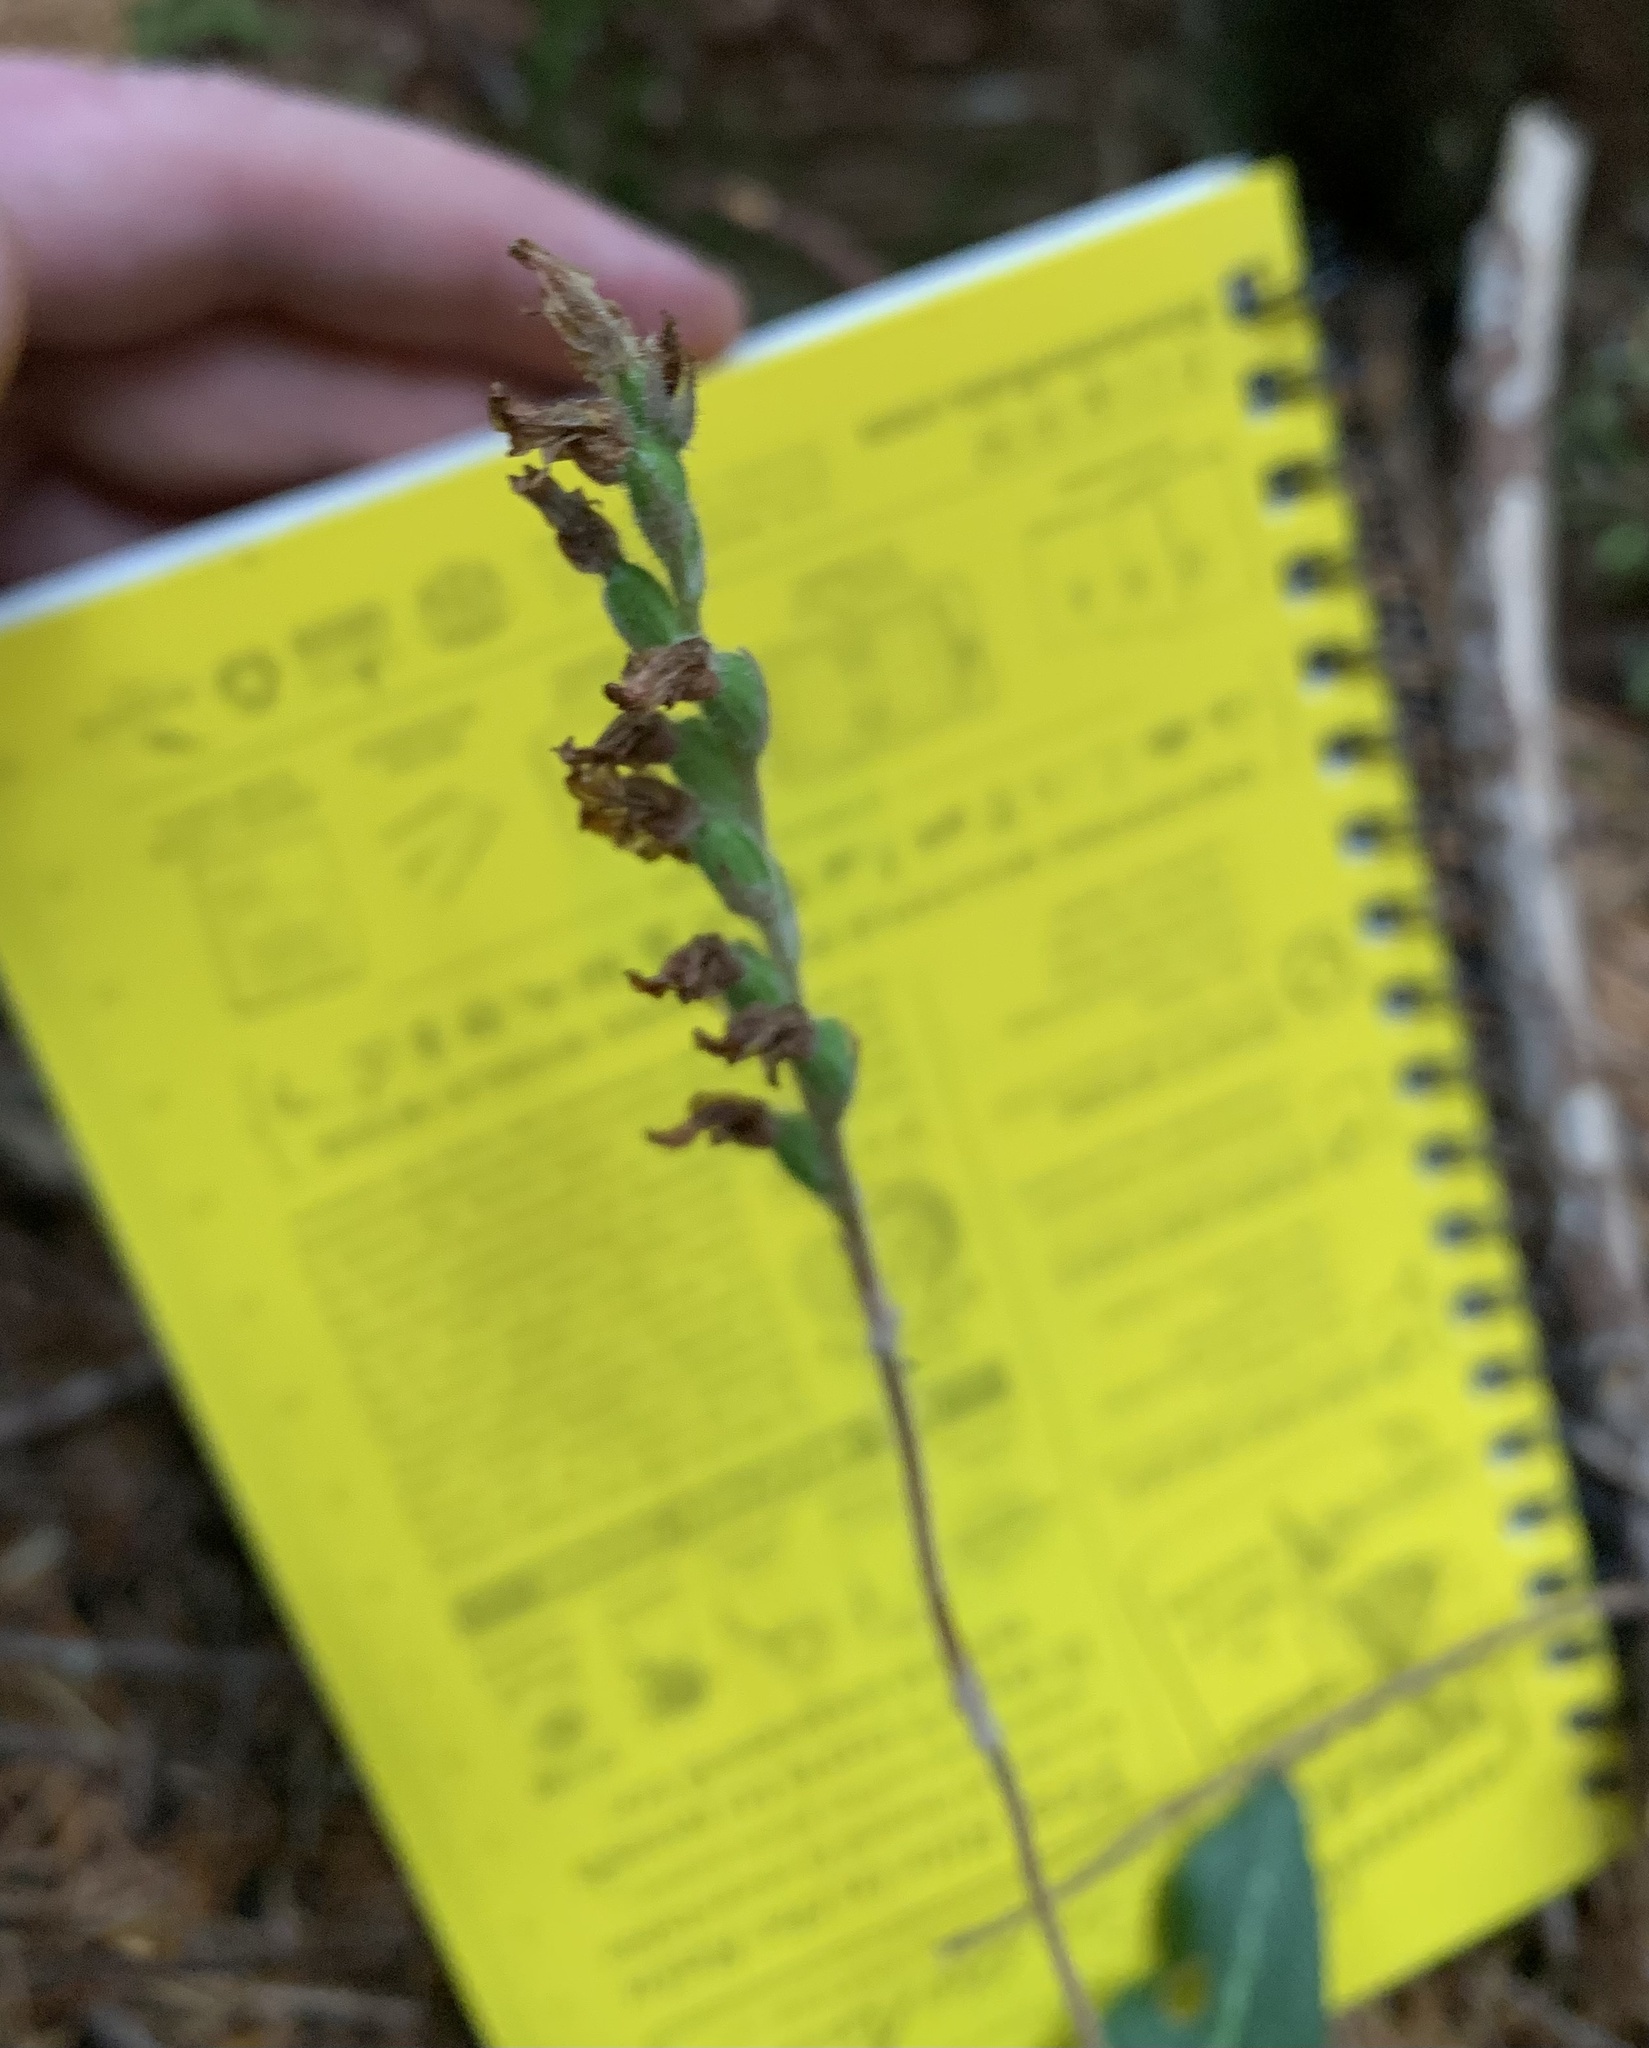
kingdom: Plantae
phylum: Tracheophyta
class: Liliopsida
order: Asparagales
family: Orchidaceae
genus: Goodyera
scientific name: Goodyera oblongifolia
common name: Giant rattlesnake-plantain
